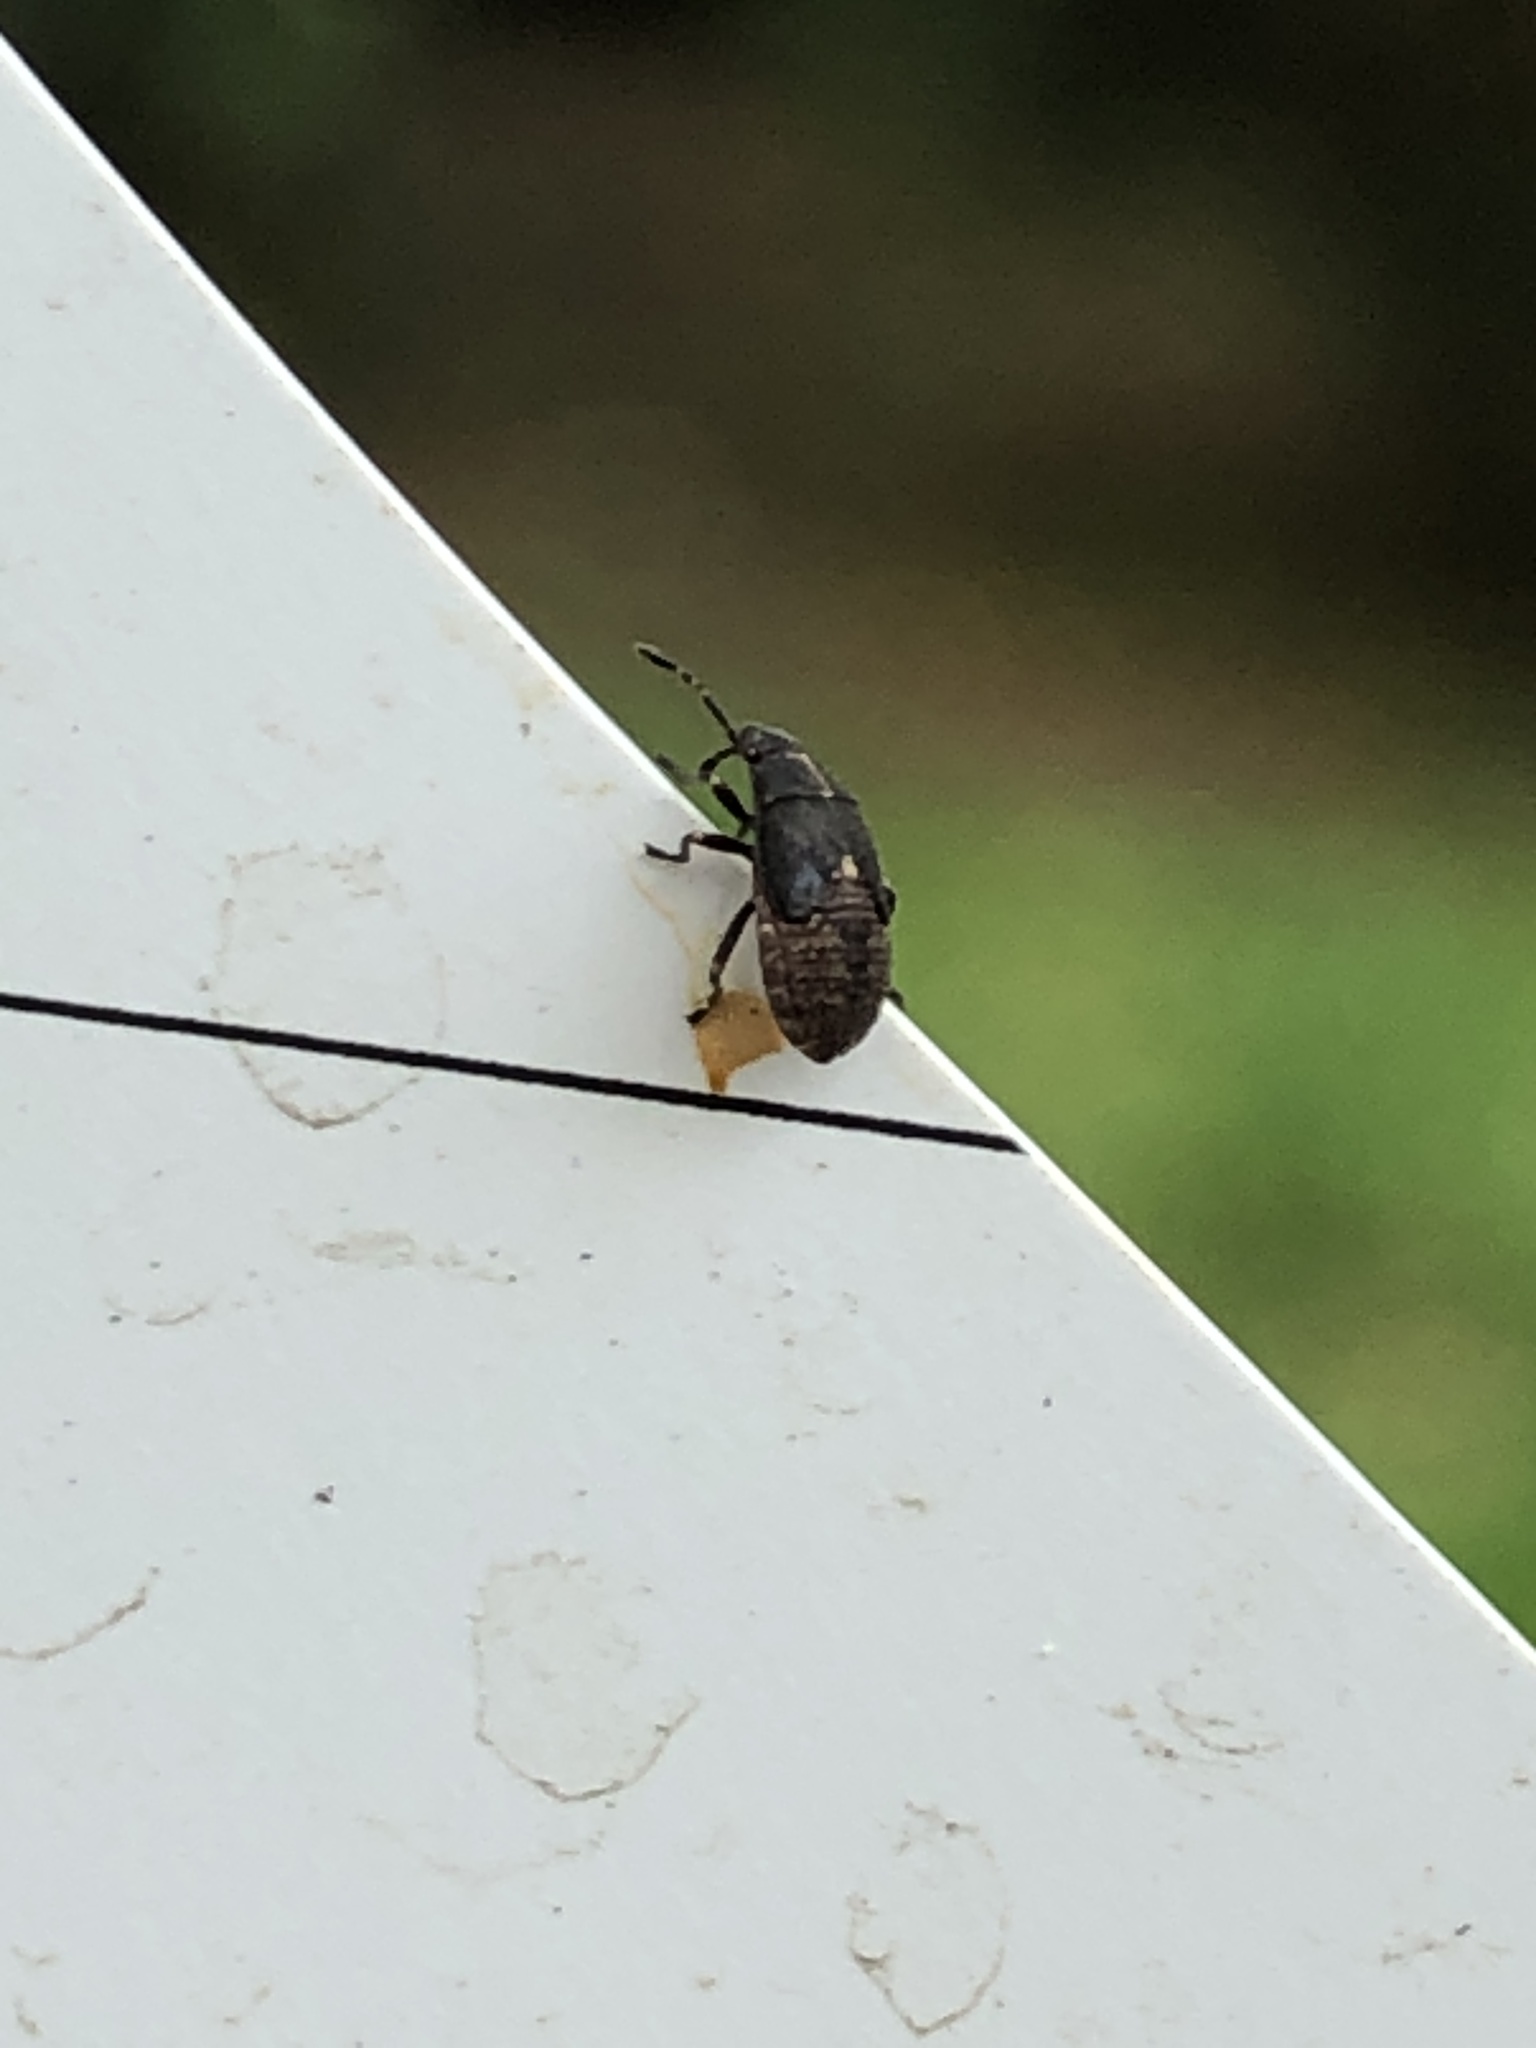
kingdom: Animalia
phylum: Arthropoda
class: Insecta
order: Hemiptera
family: Lygaeidae
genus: Kleidocerys
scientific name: Kleidocerys resedae
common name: Birch catkin bug
